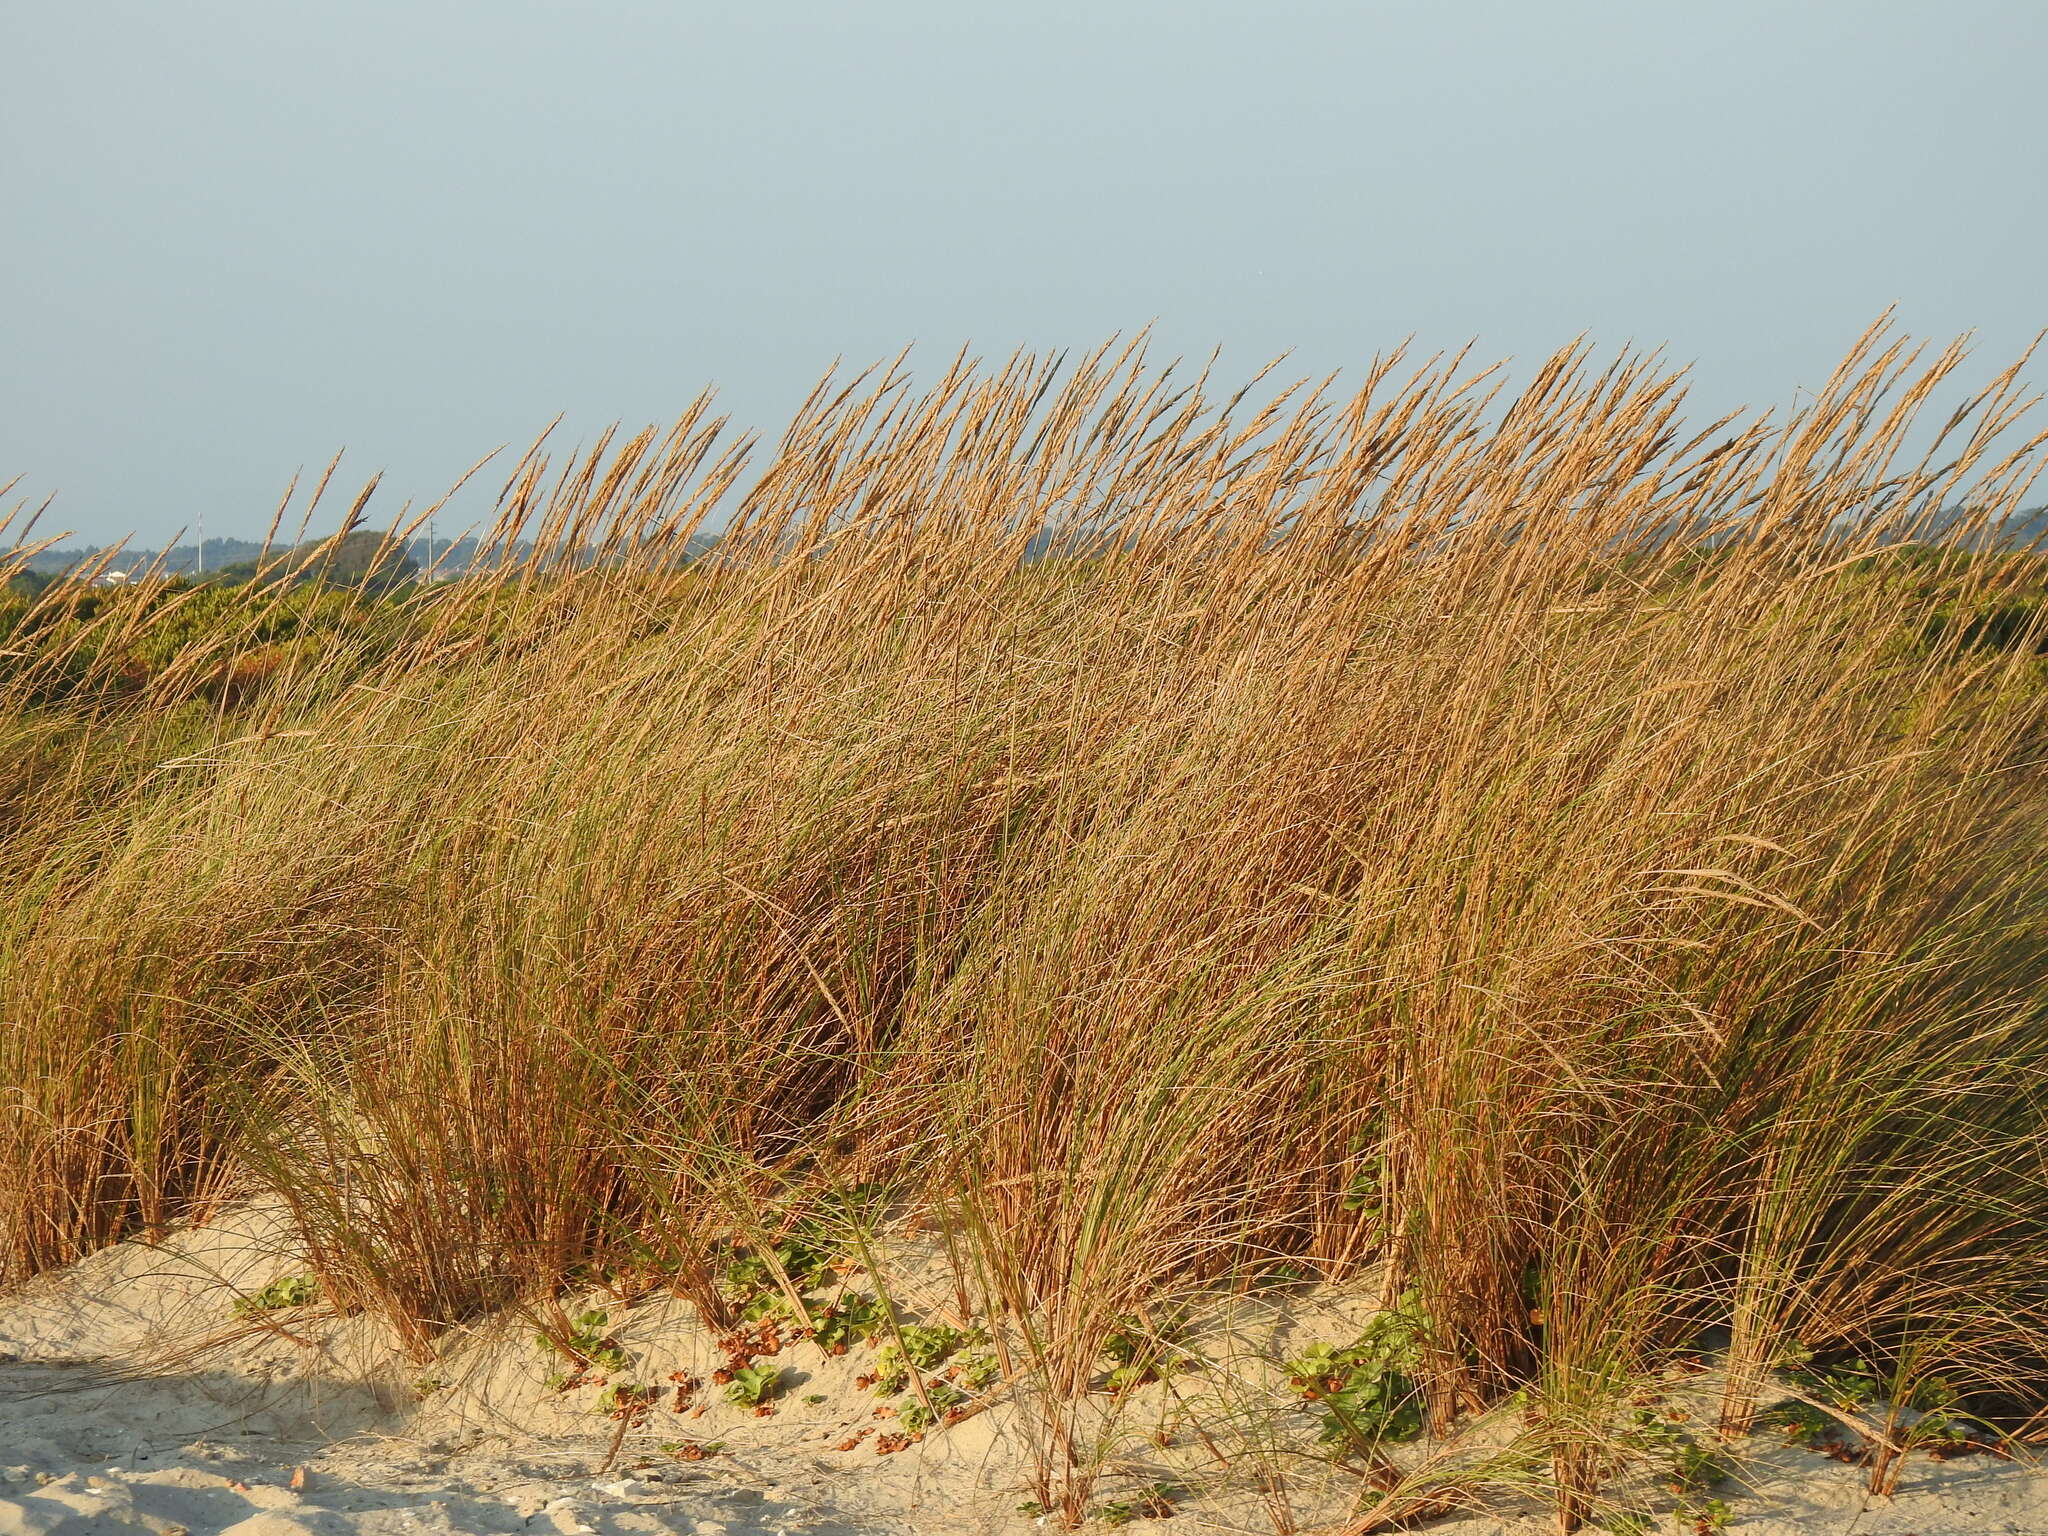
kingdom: Plantae
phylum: Tracheophyta
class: Liliopsida
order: Poales
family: Poaceae
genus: Calamagrostis
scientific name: Calamagrostis arenaria
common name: European beachgrass
